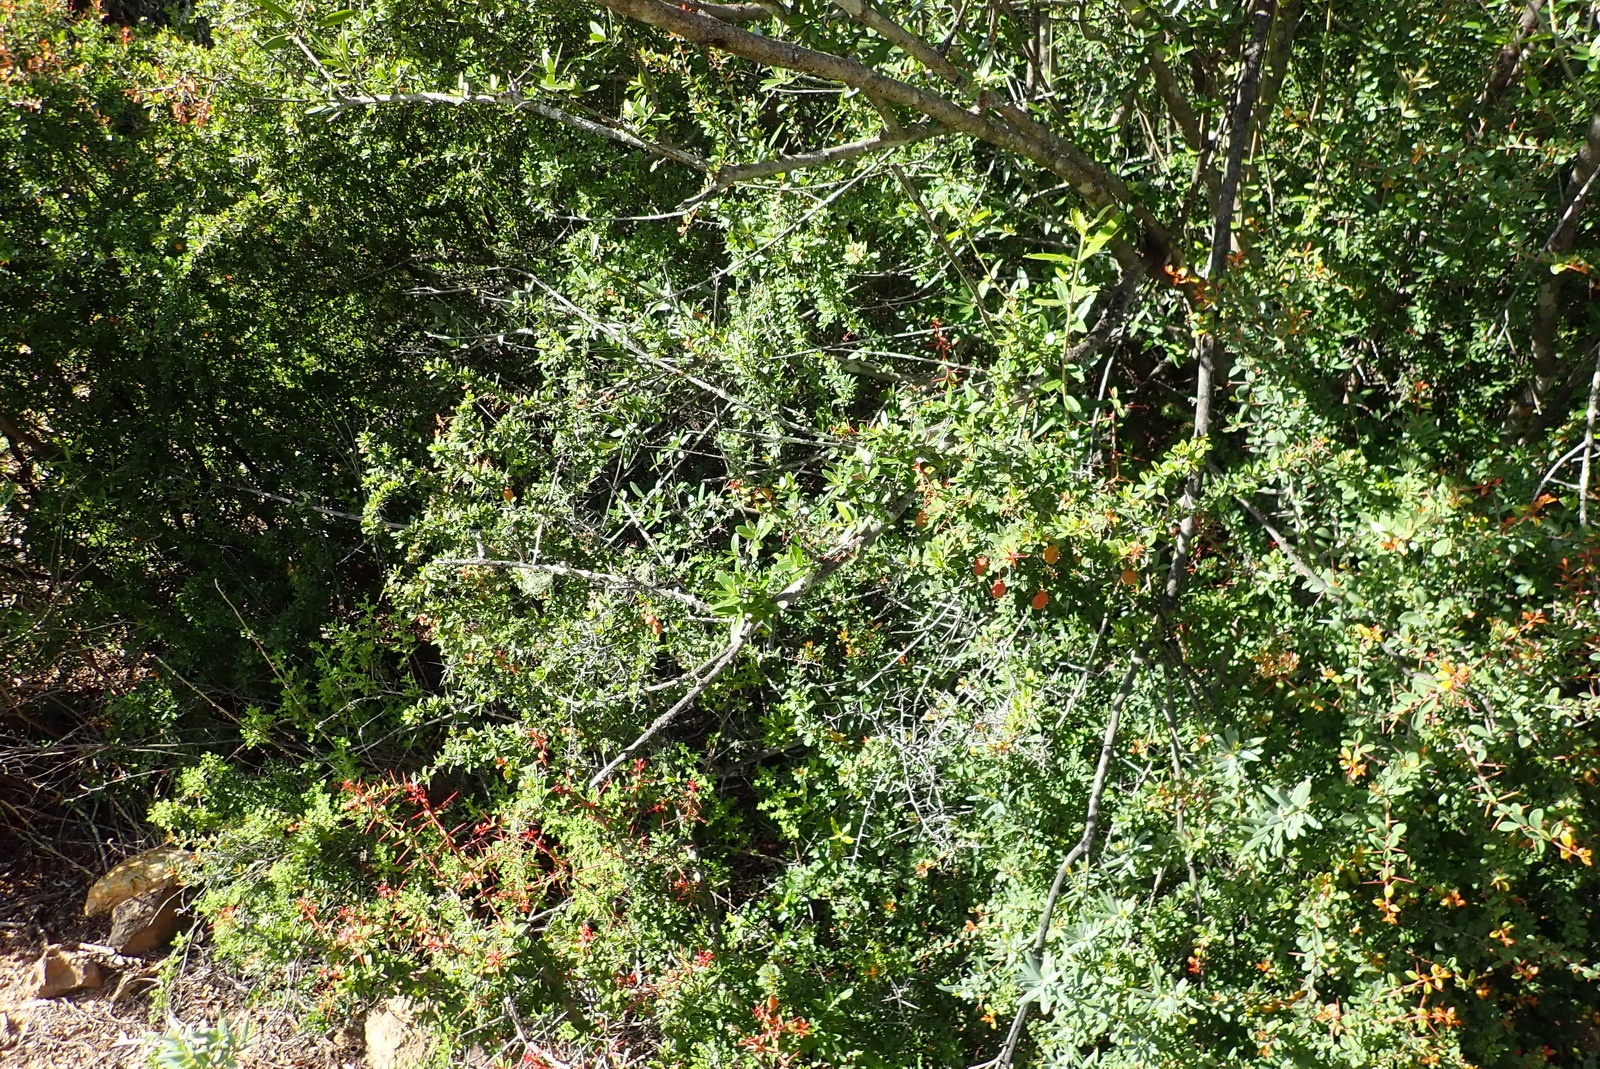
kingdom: Plantae
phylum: Tracheophyta
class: Magnoliopsida
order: Celastrales
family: Celastraceae
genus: Putterlickia
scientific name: Putterlickia pyracantha
